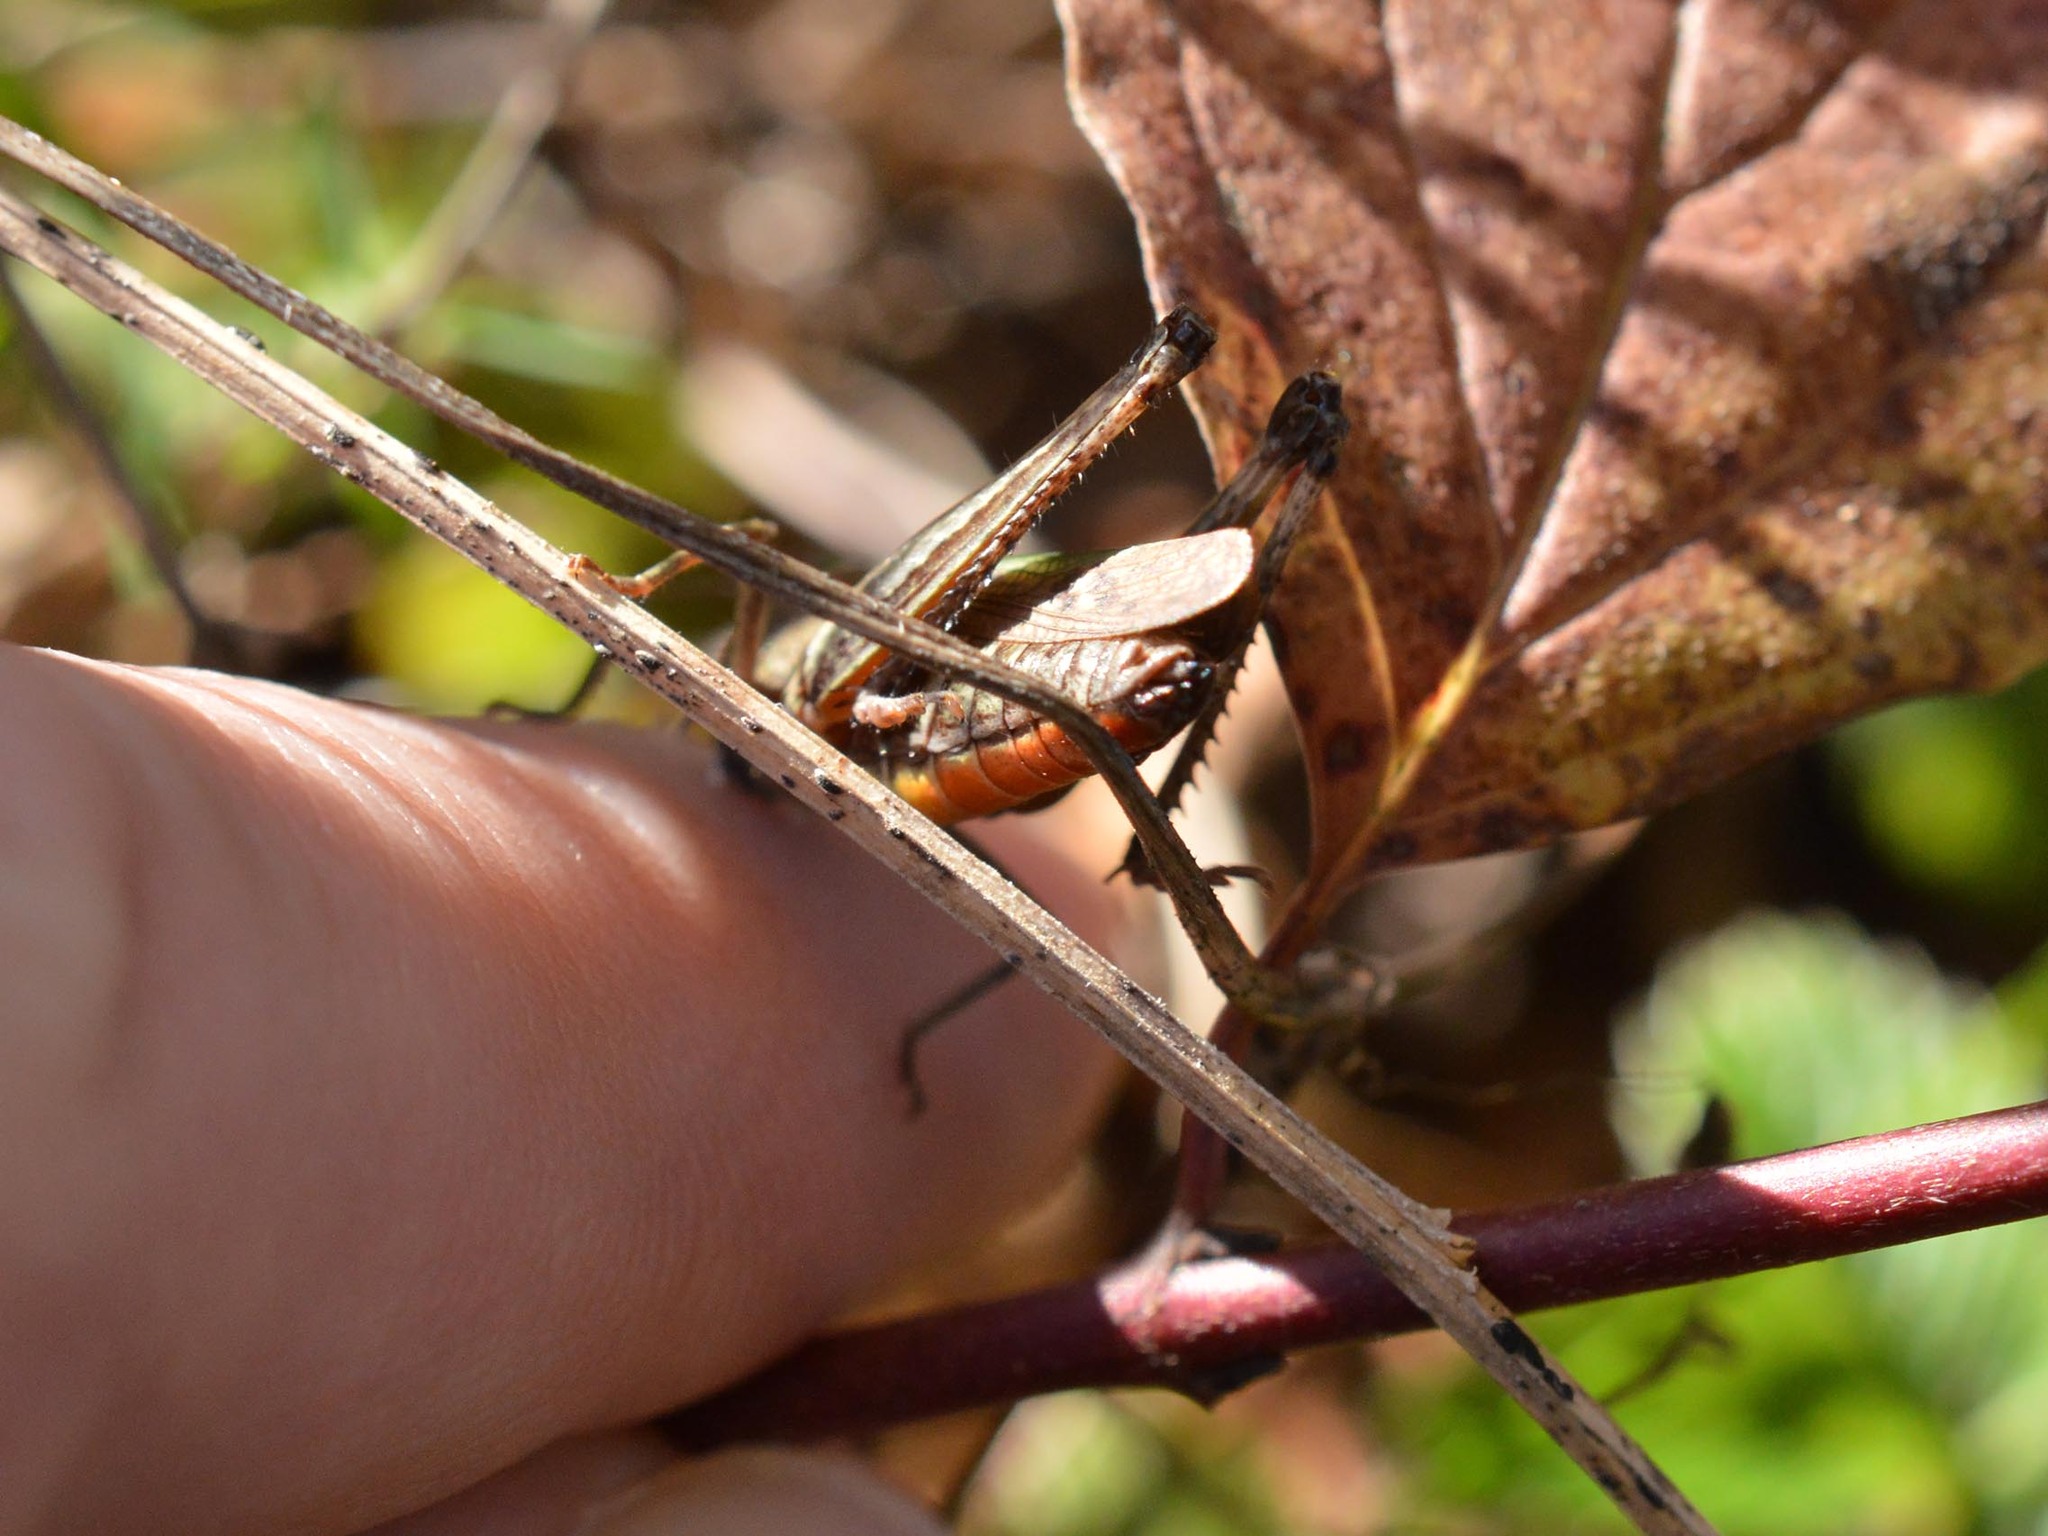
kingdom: Animalia
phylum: Arthropoda
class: Insecta
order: Orthoptera
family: Acrididae
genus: Omocestus
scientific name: Omocestus rufipes
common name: Woodland grasshopper
